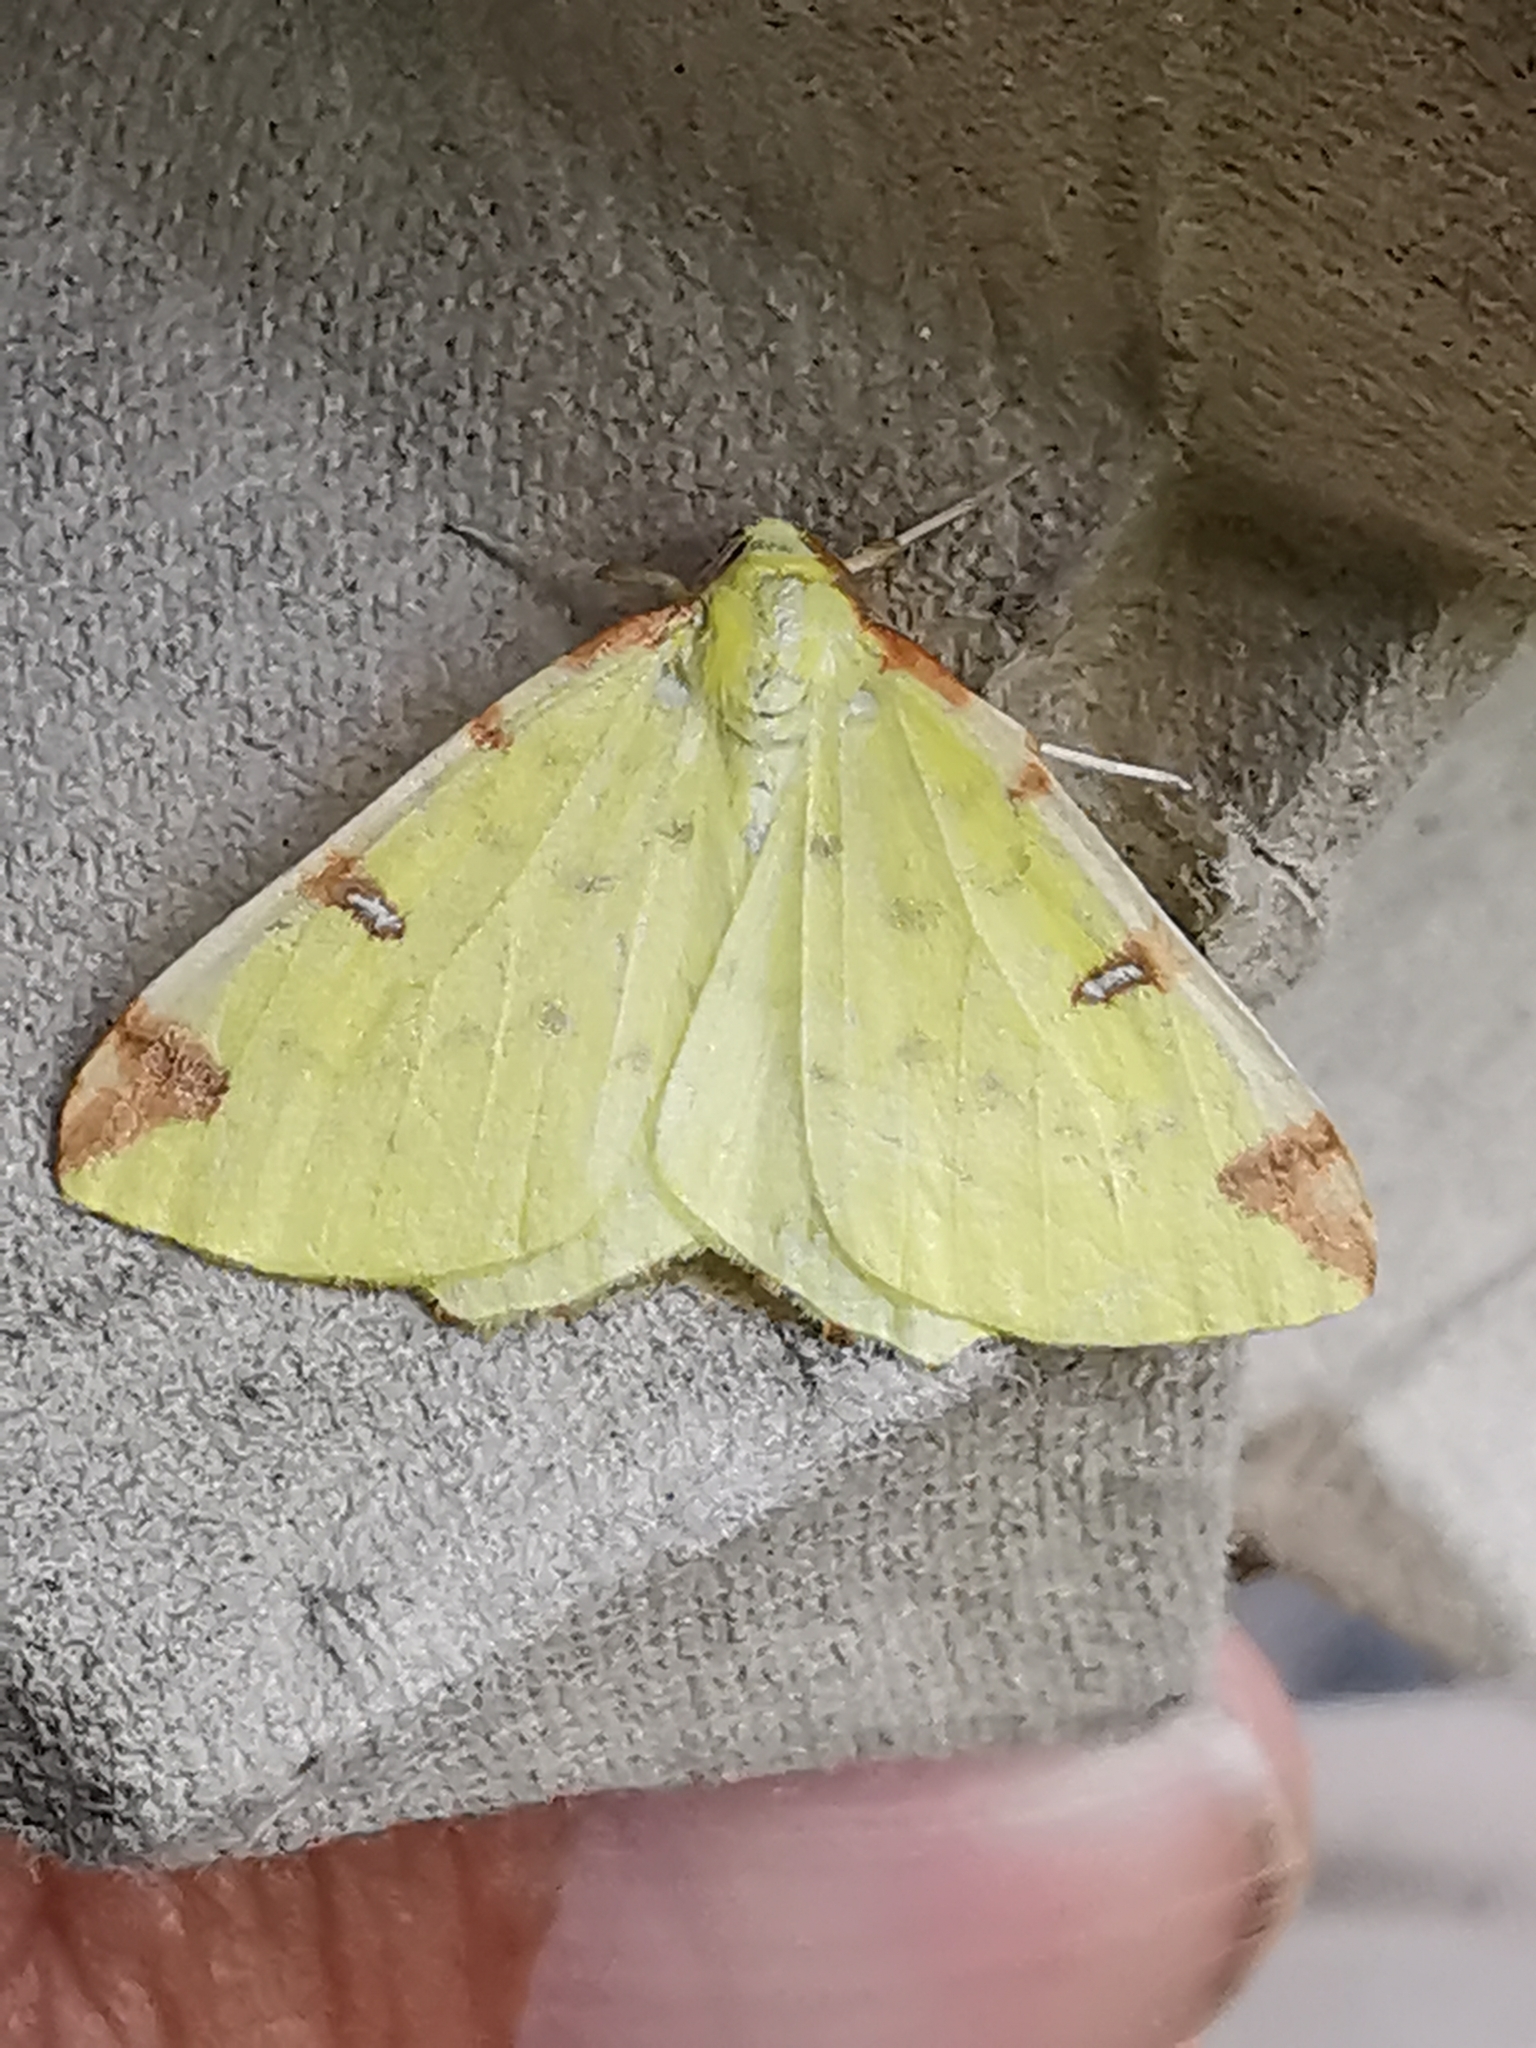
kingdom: Animalia
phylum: Arthropoda
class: Insecta
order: Lepidoptera
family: Geometridae
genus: Opisthograptis
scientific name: Opisthograptis luteolata
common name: Brimstone moth
